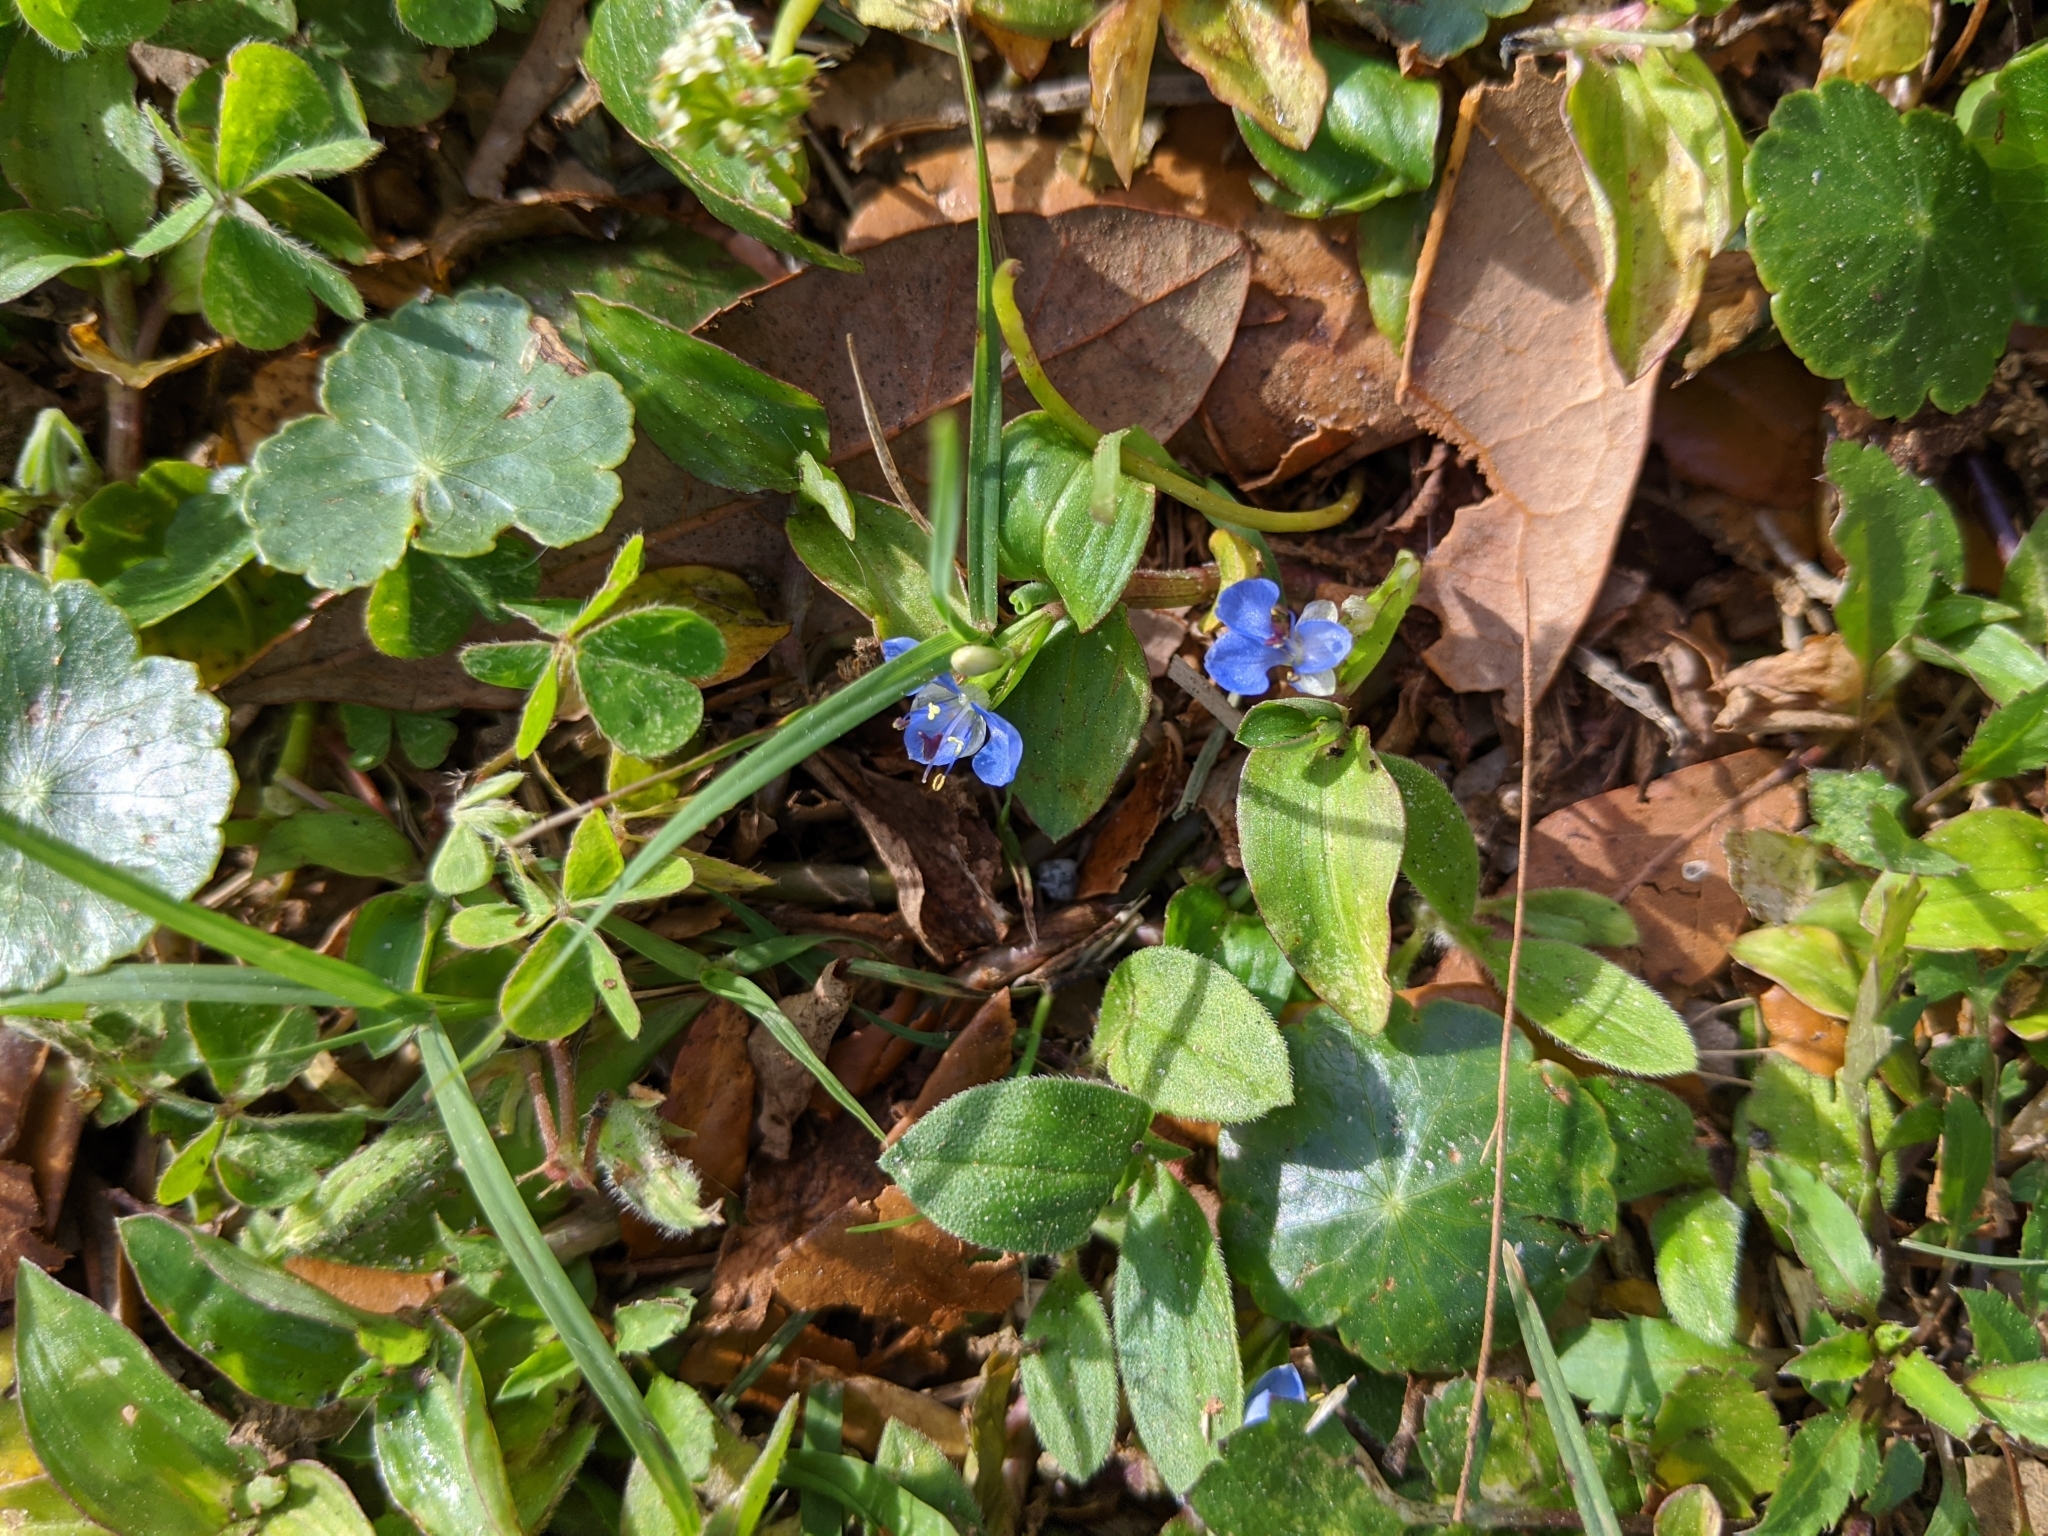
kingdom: Plantae
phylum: Tracheophyta
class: Liliopsida
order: Commelinales
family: Commelinaceae
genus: Commelina
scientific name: Commelina diffusa
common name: Climbing dayflower
